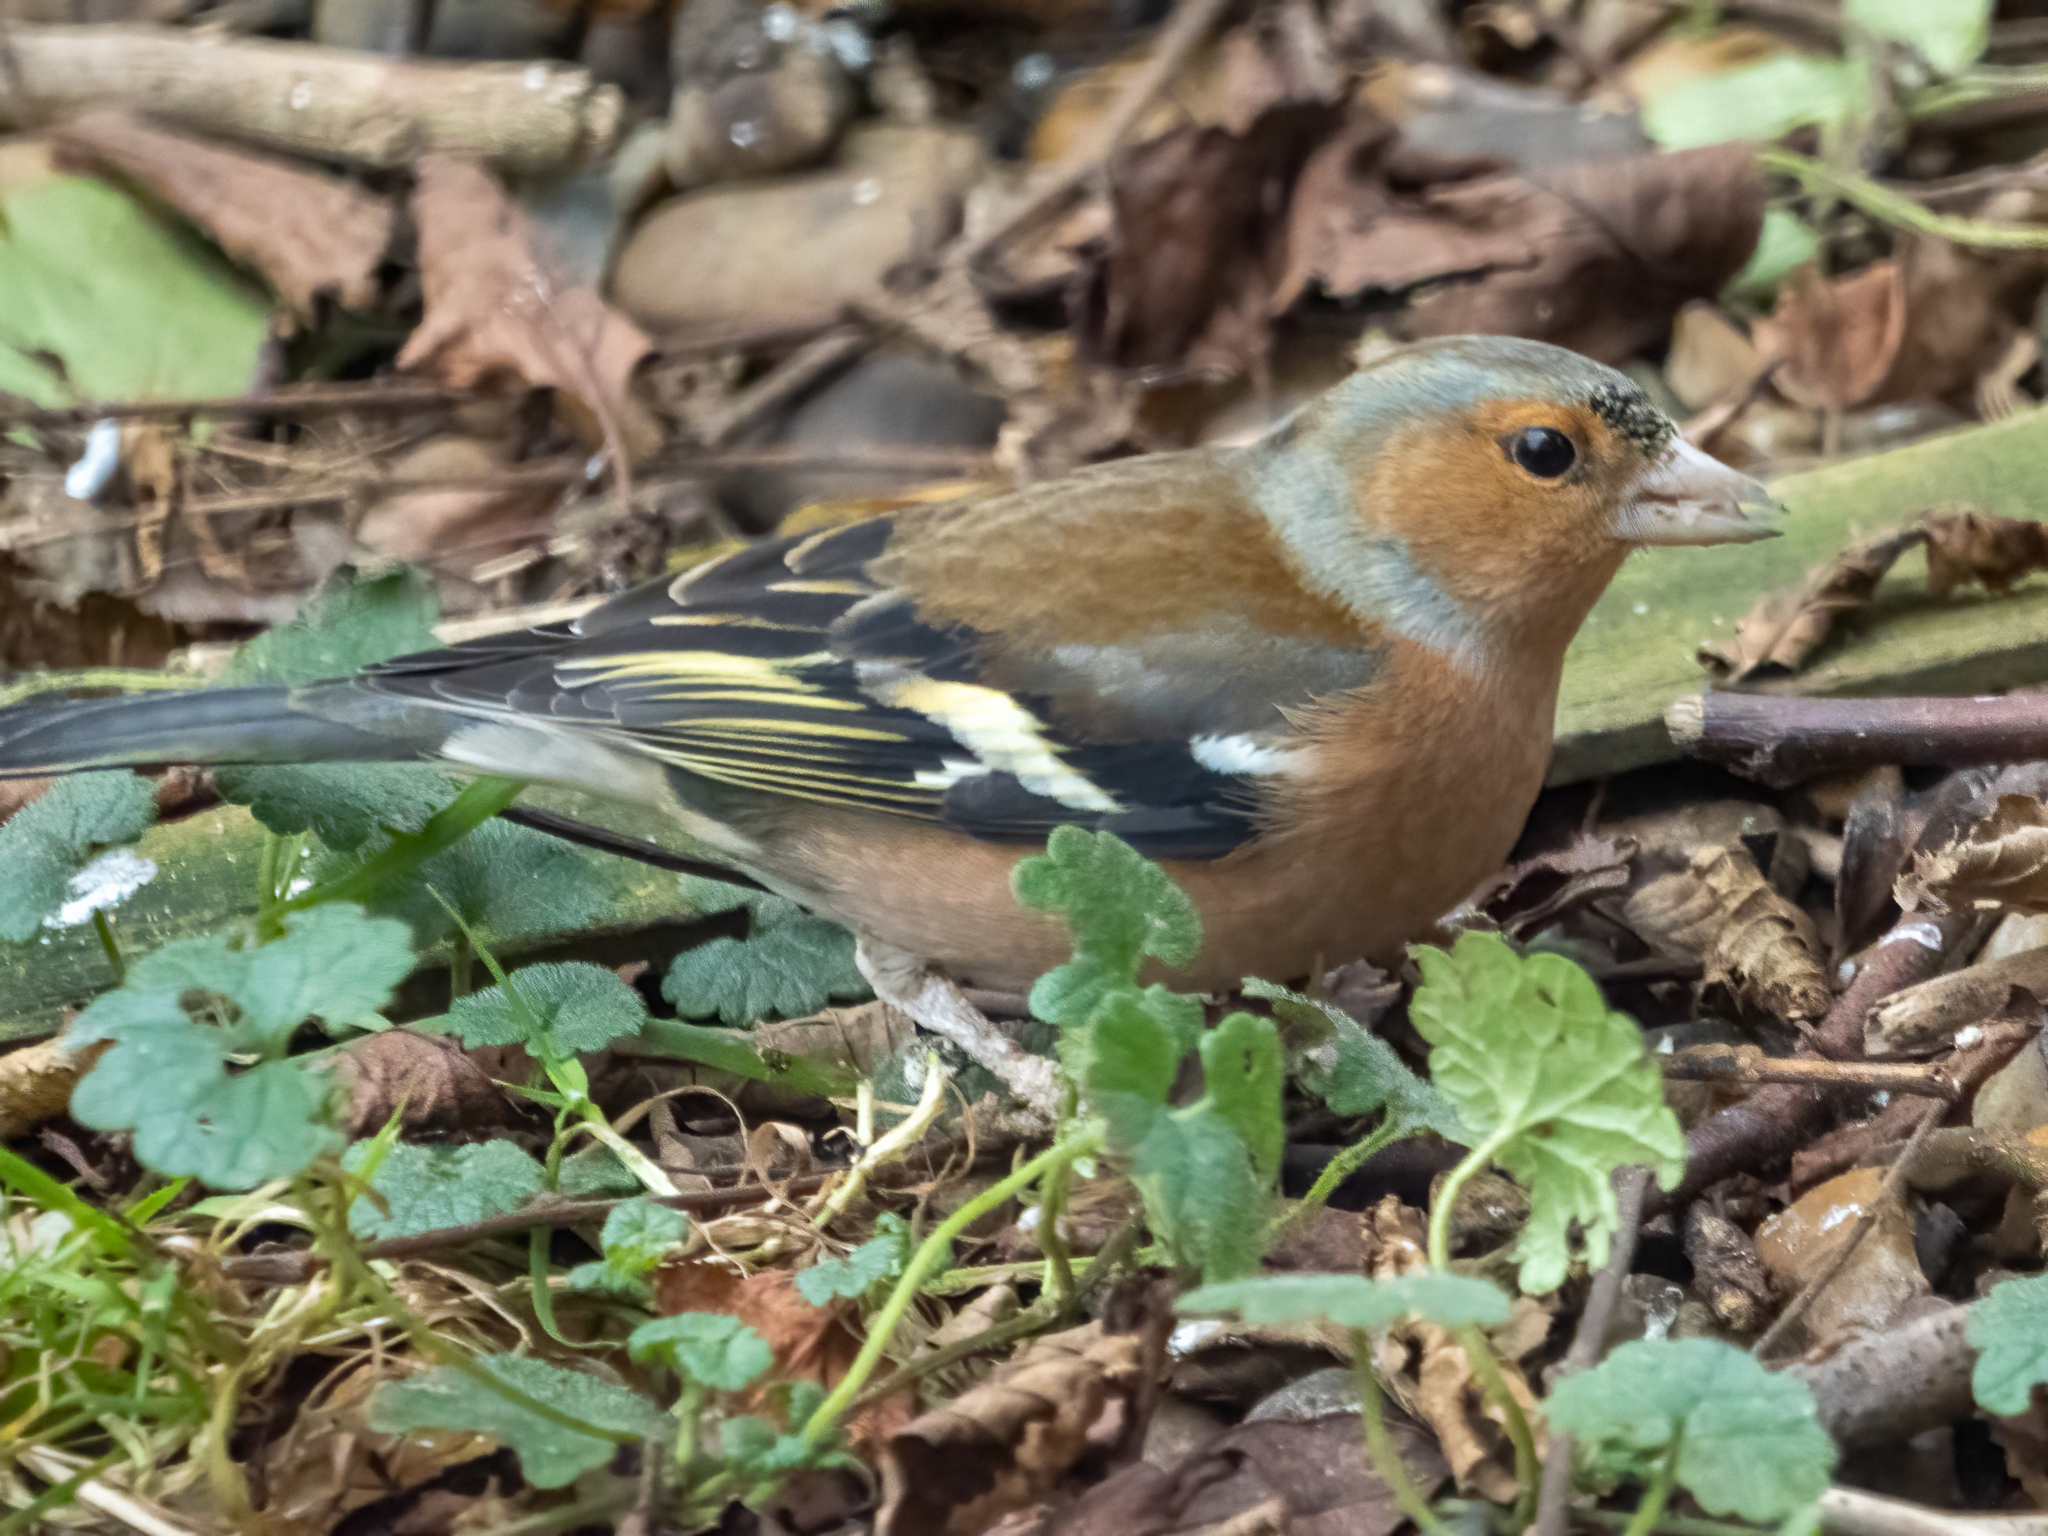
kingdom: Animalia
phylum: Chordata
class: Aves
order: Passeriformes
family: Fringillidae
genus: Fringilla
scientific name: Fringilla coelebs
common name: Common chaffinch
